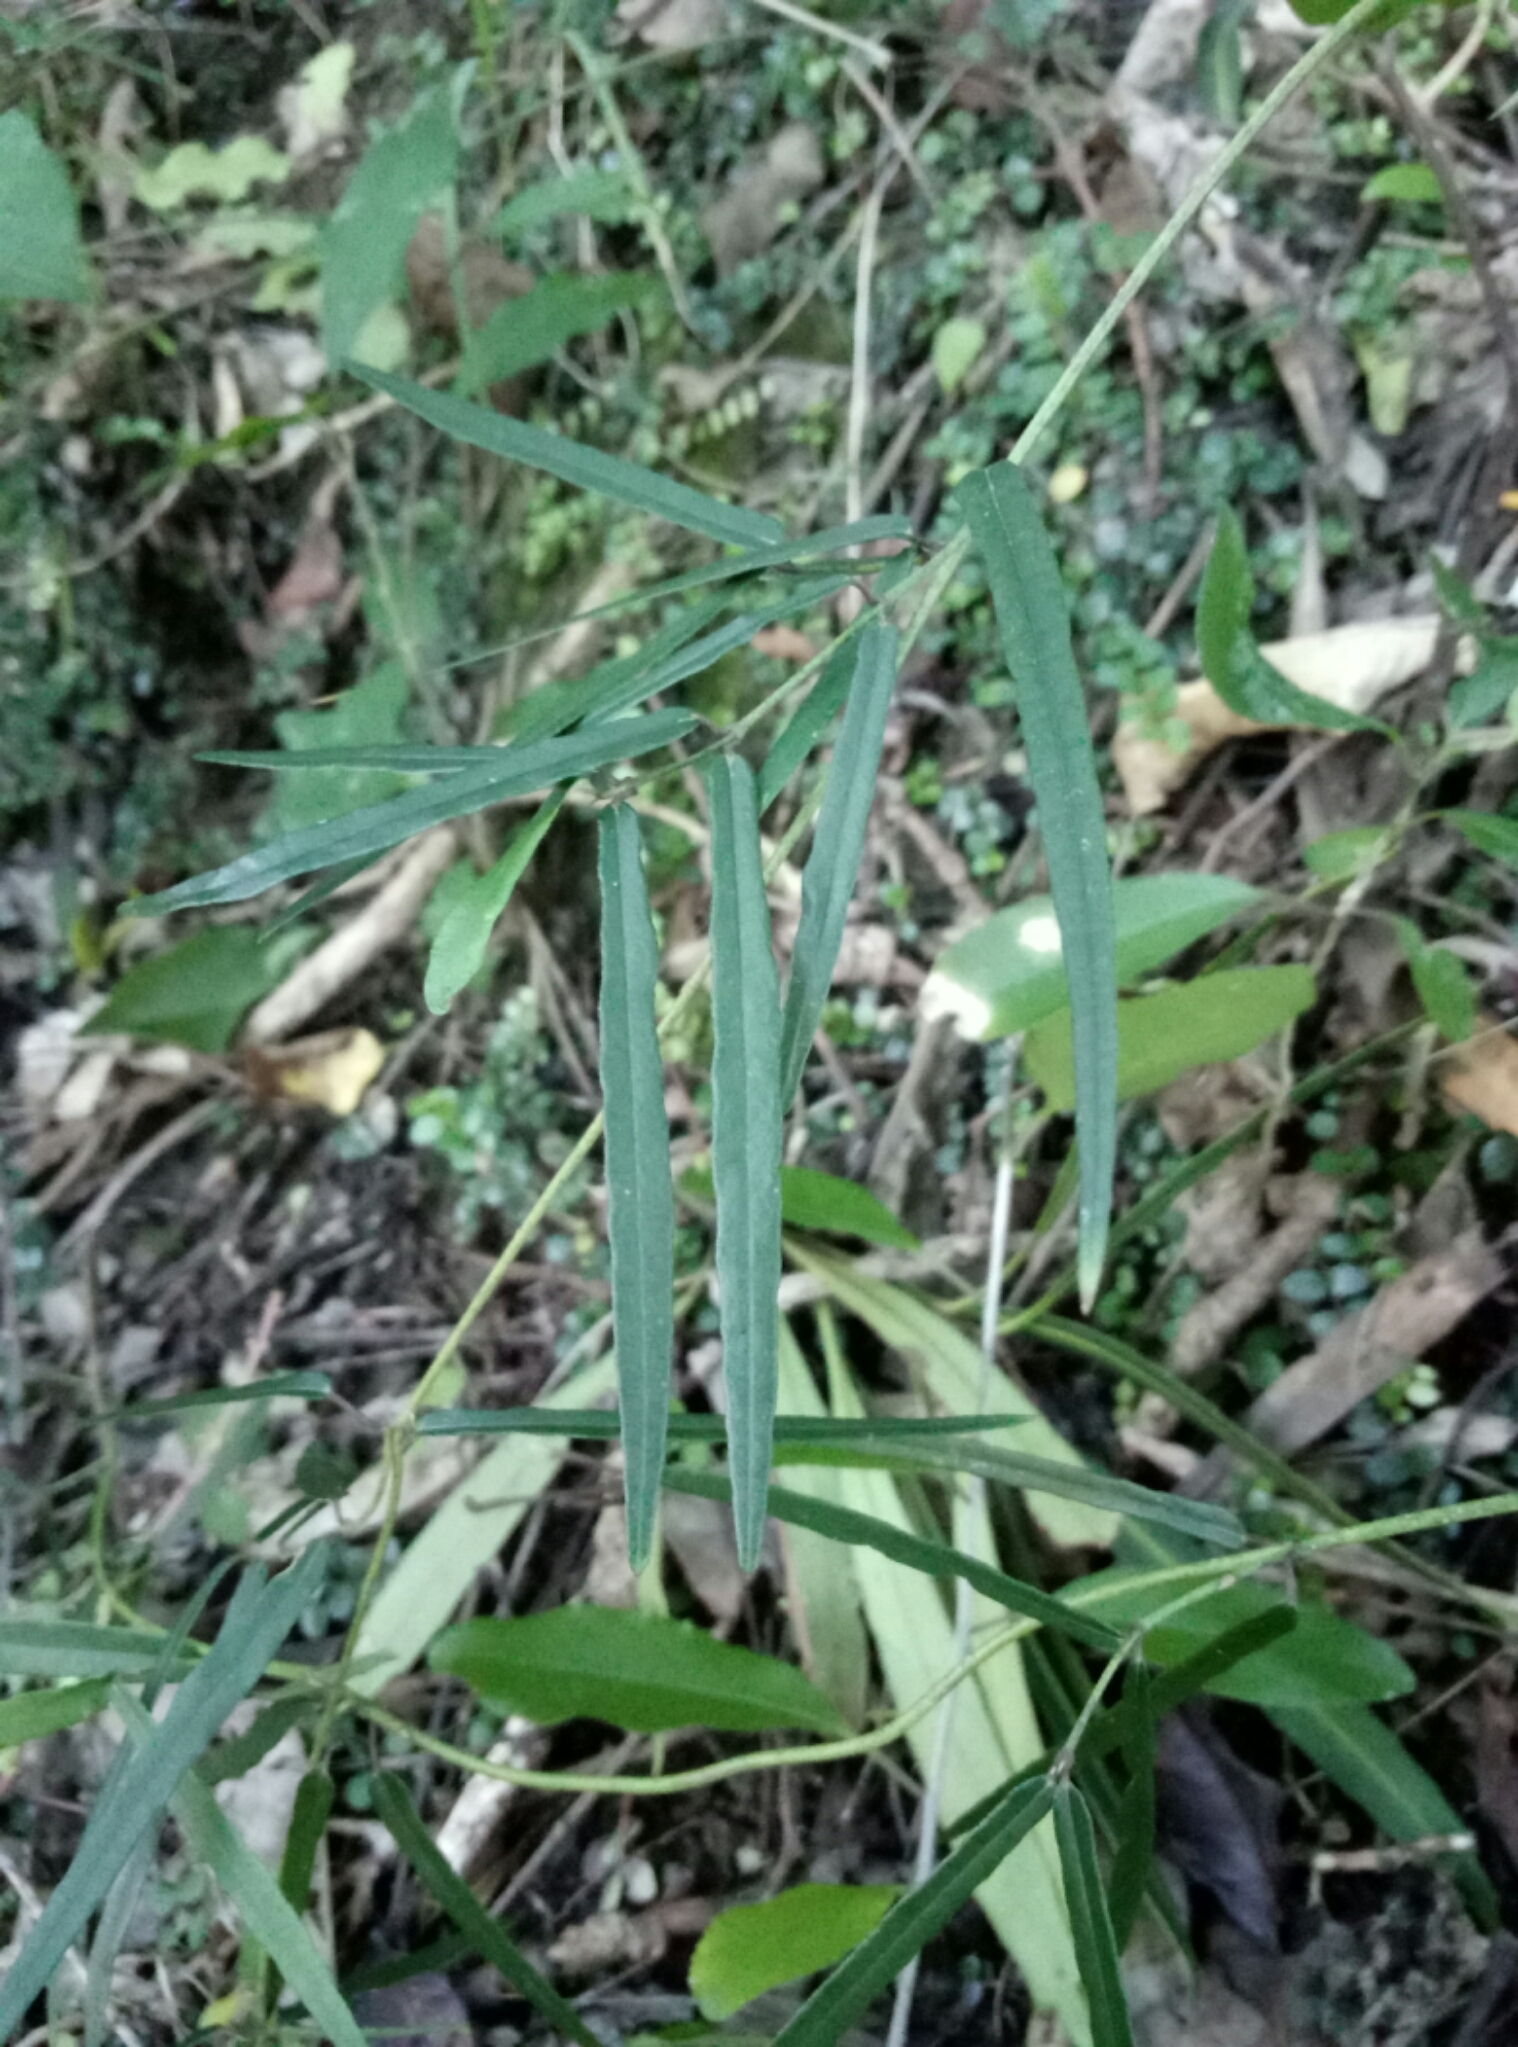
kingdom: Plantae
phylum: Tracheophyta
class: Magnoliopsida
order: Gentianales
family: Apocynaceae
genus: Parsonsia
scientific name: Parsonsia capsularis
